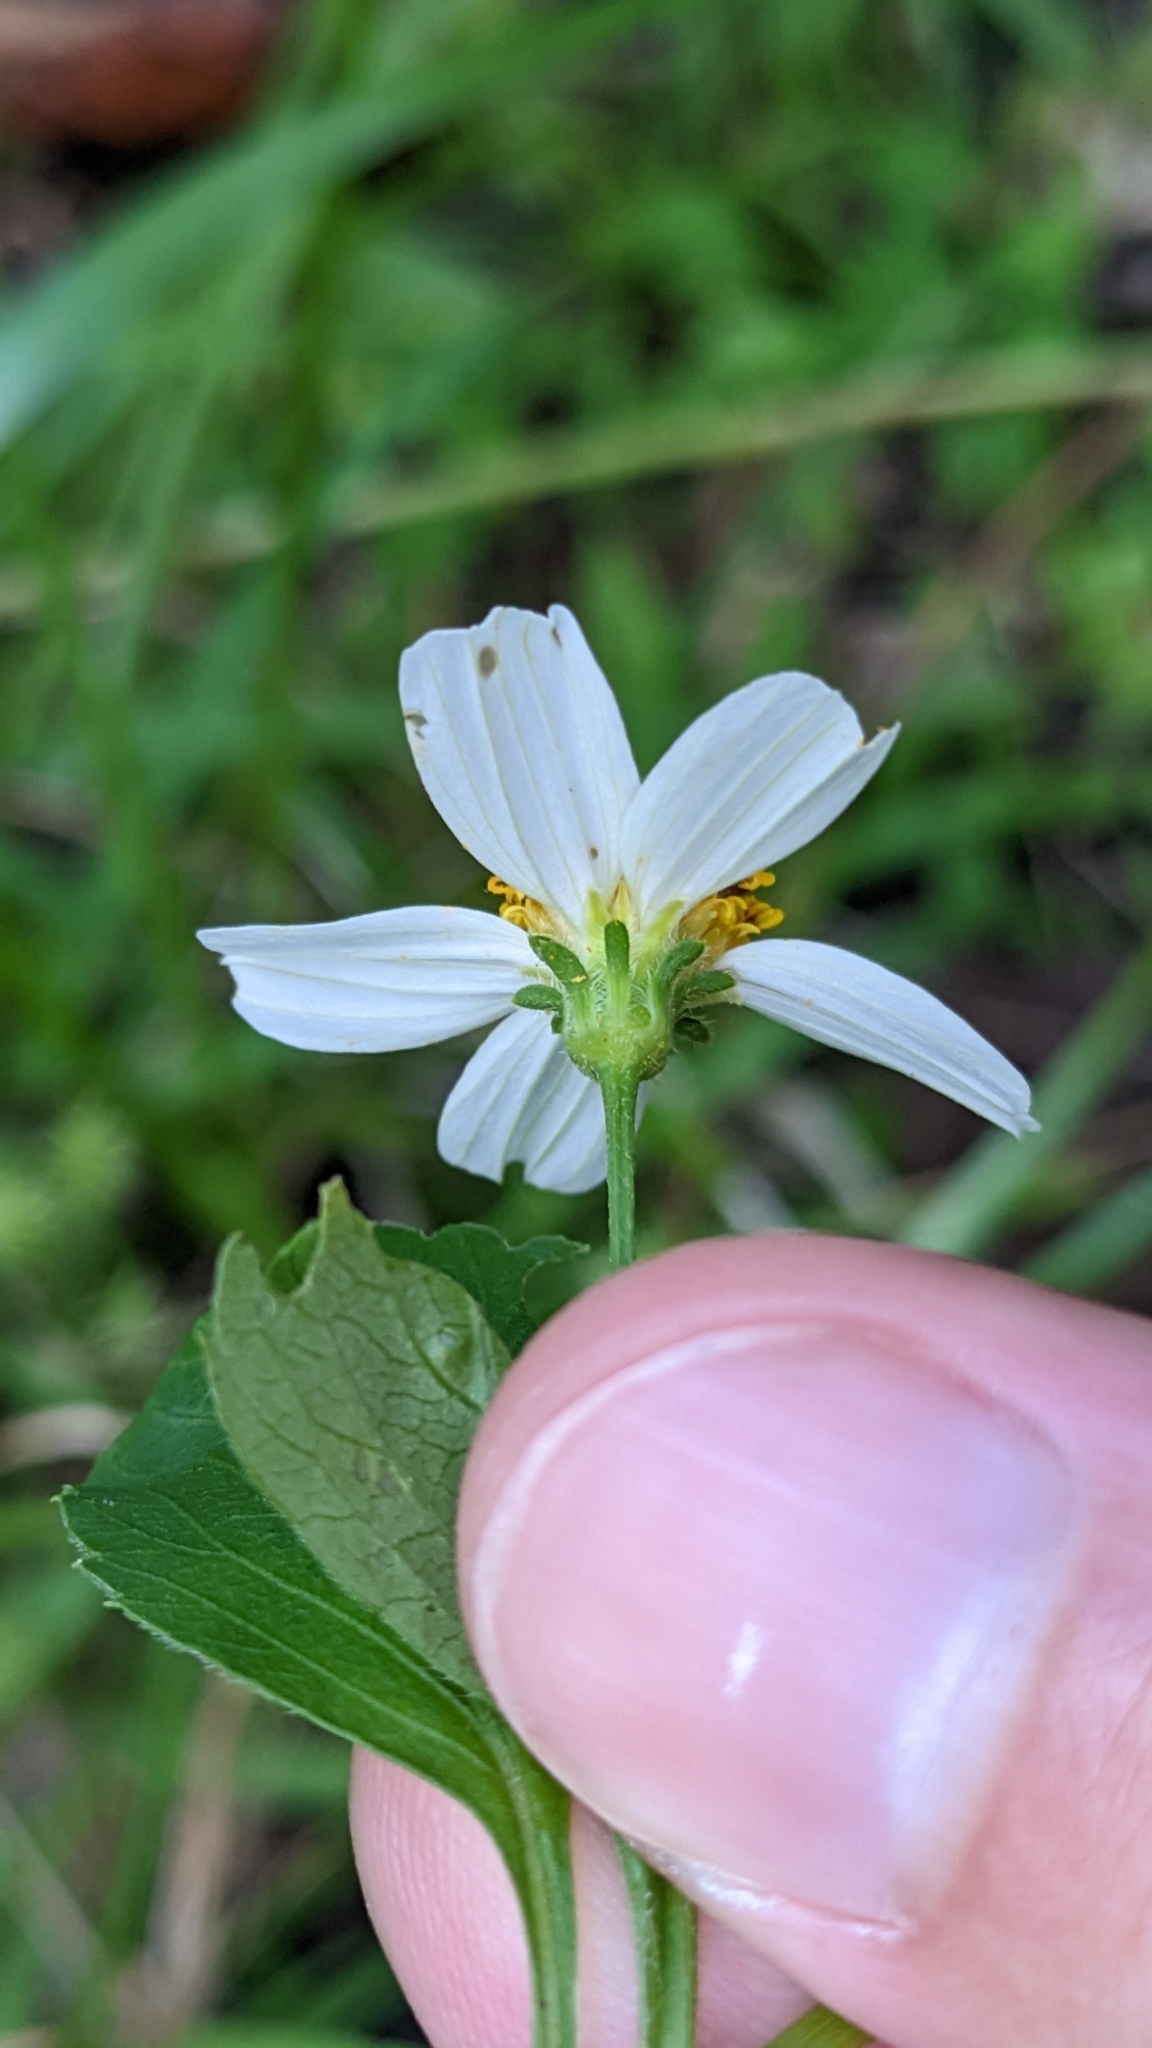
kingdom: Plantae
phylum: Tracheophyta
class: Magnoliopsida
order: Asterales
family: Asteraceae
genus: Bidens
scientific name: Bidens alba
